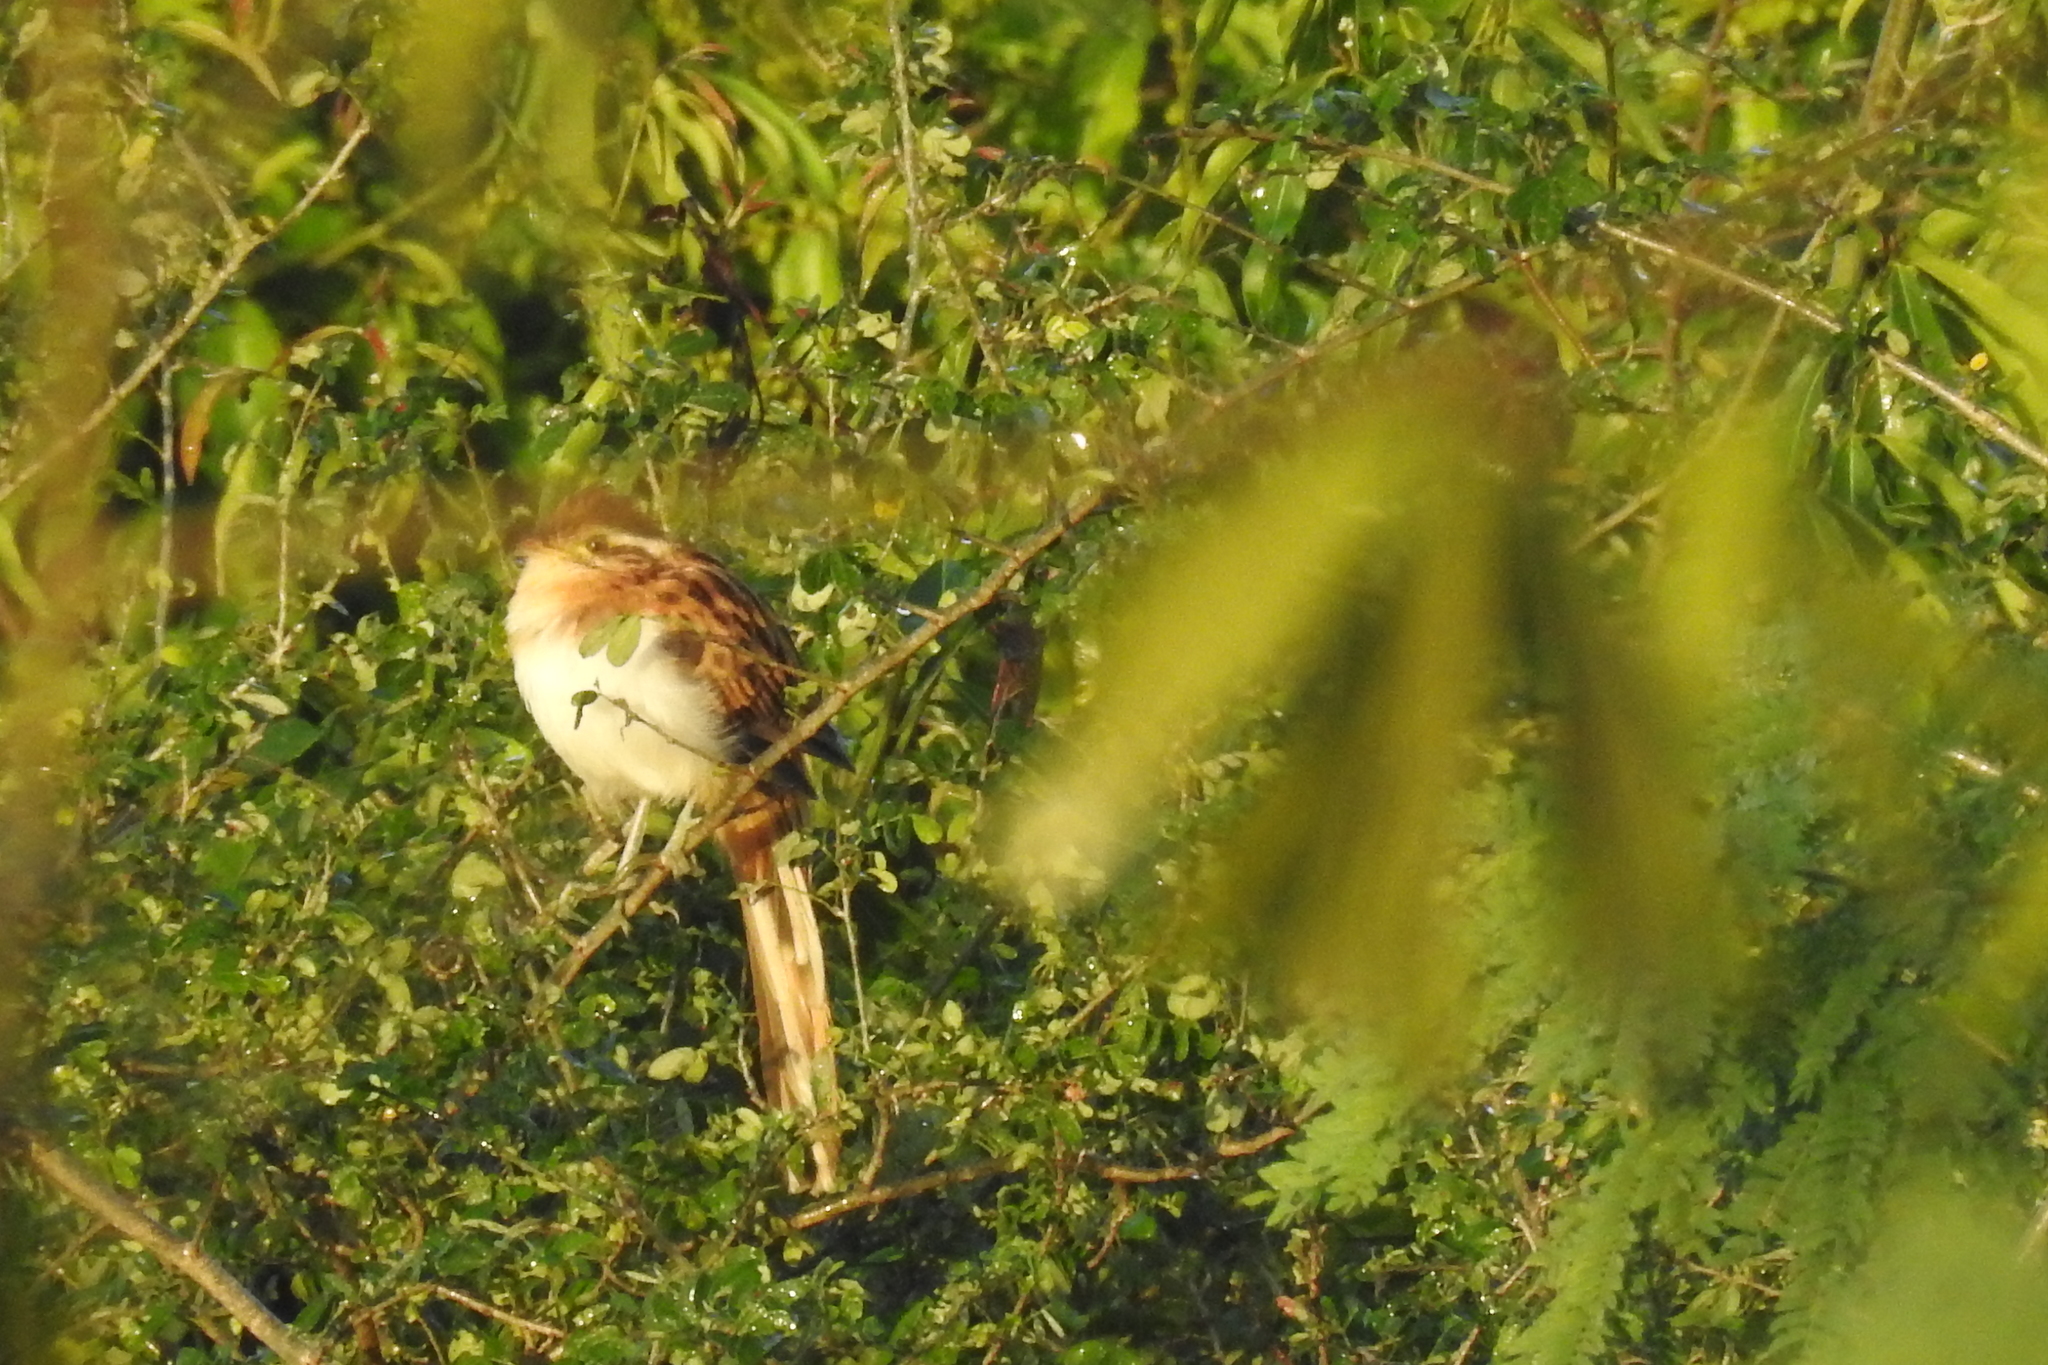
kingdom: Animalia
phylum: Chordata
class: Aves
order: Cuculiformes
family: Cuculidae
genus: Tapera
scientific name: Tapera naevia
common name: Striped cuckoo
